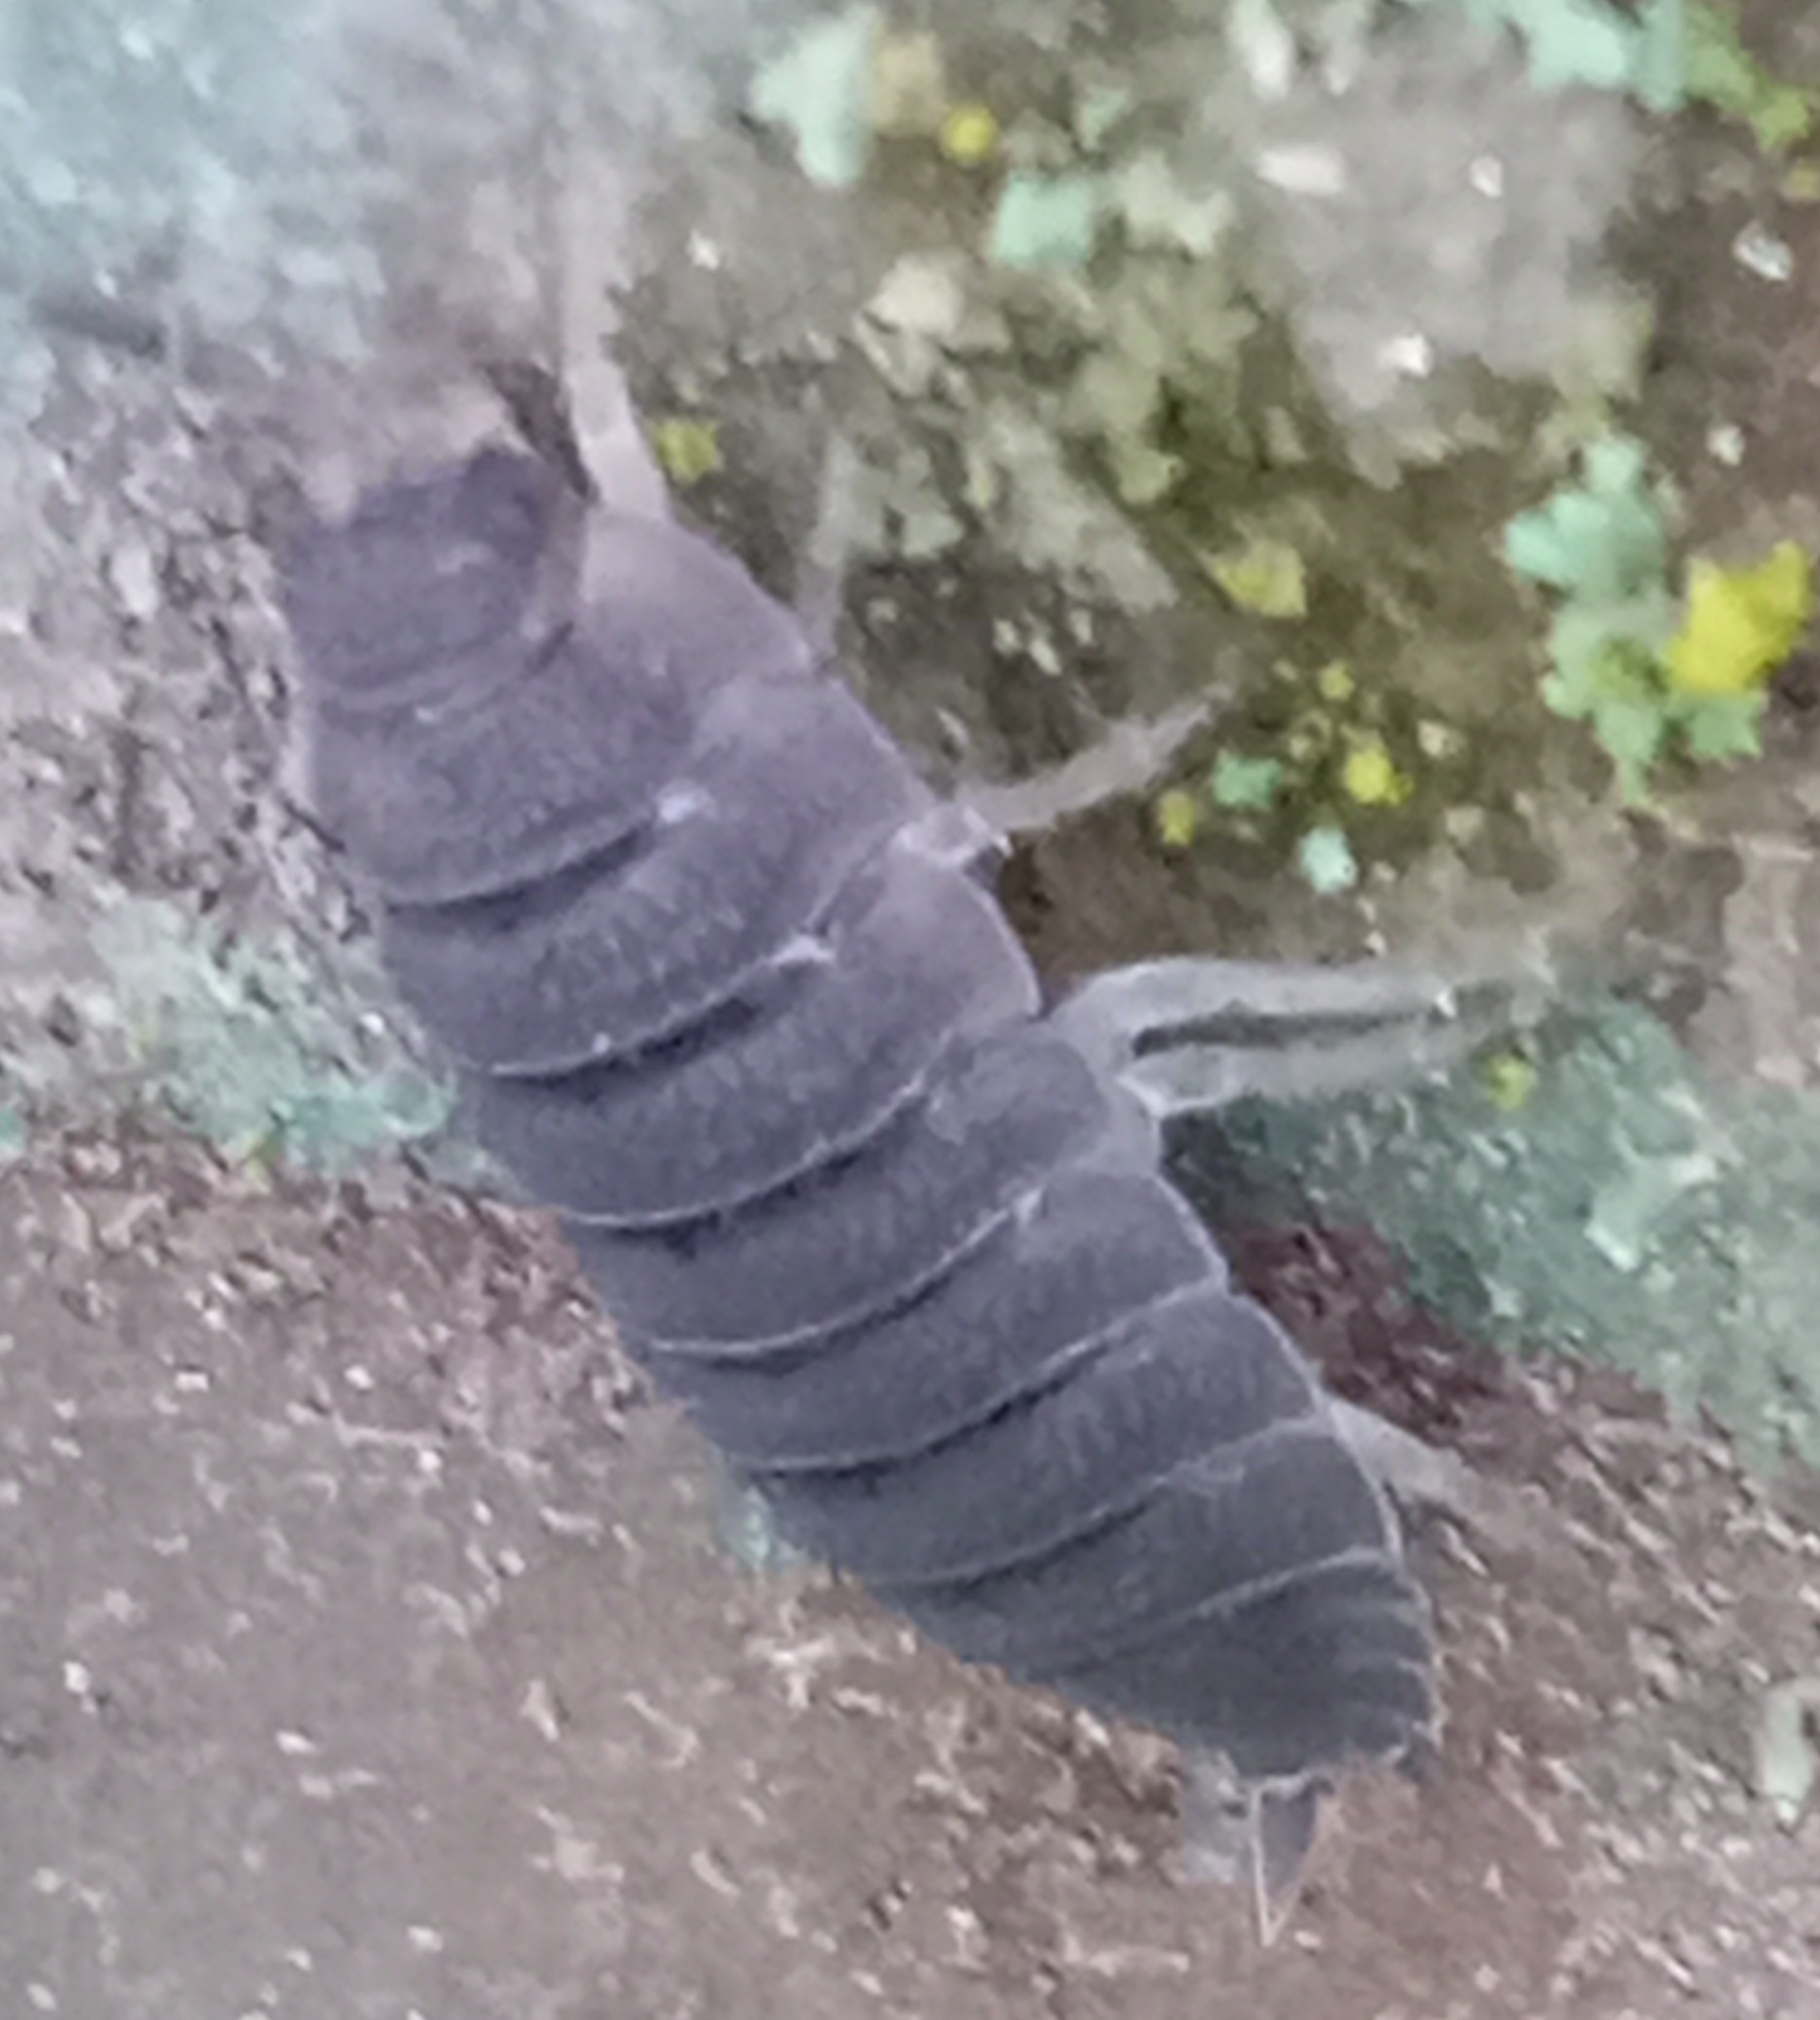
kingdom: Animalia
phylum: Arthropoda
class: Malacostraca
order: Isopoda
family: Porcellionidae
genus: Porcellio
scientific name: Porcellio scaber
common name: Common rough woodlouse
